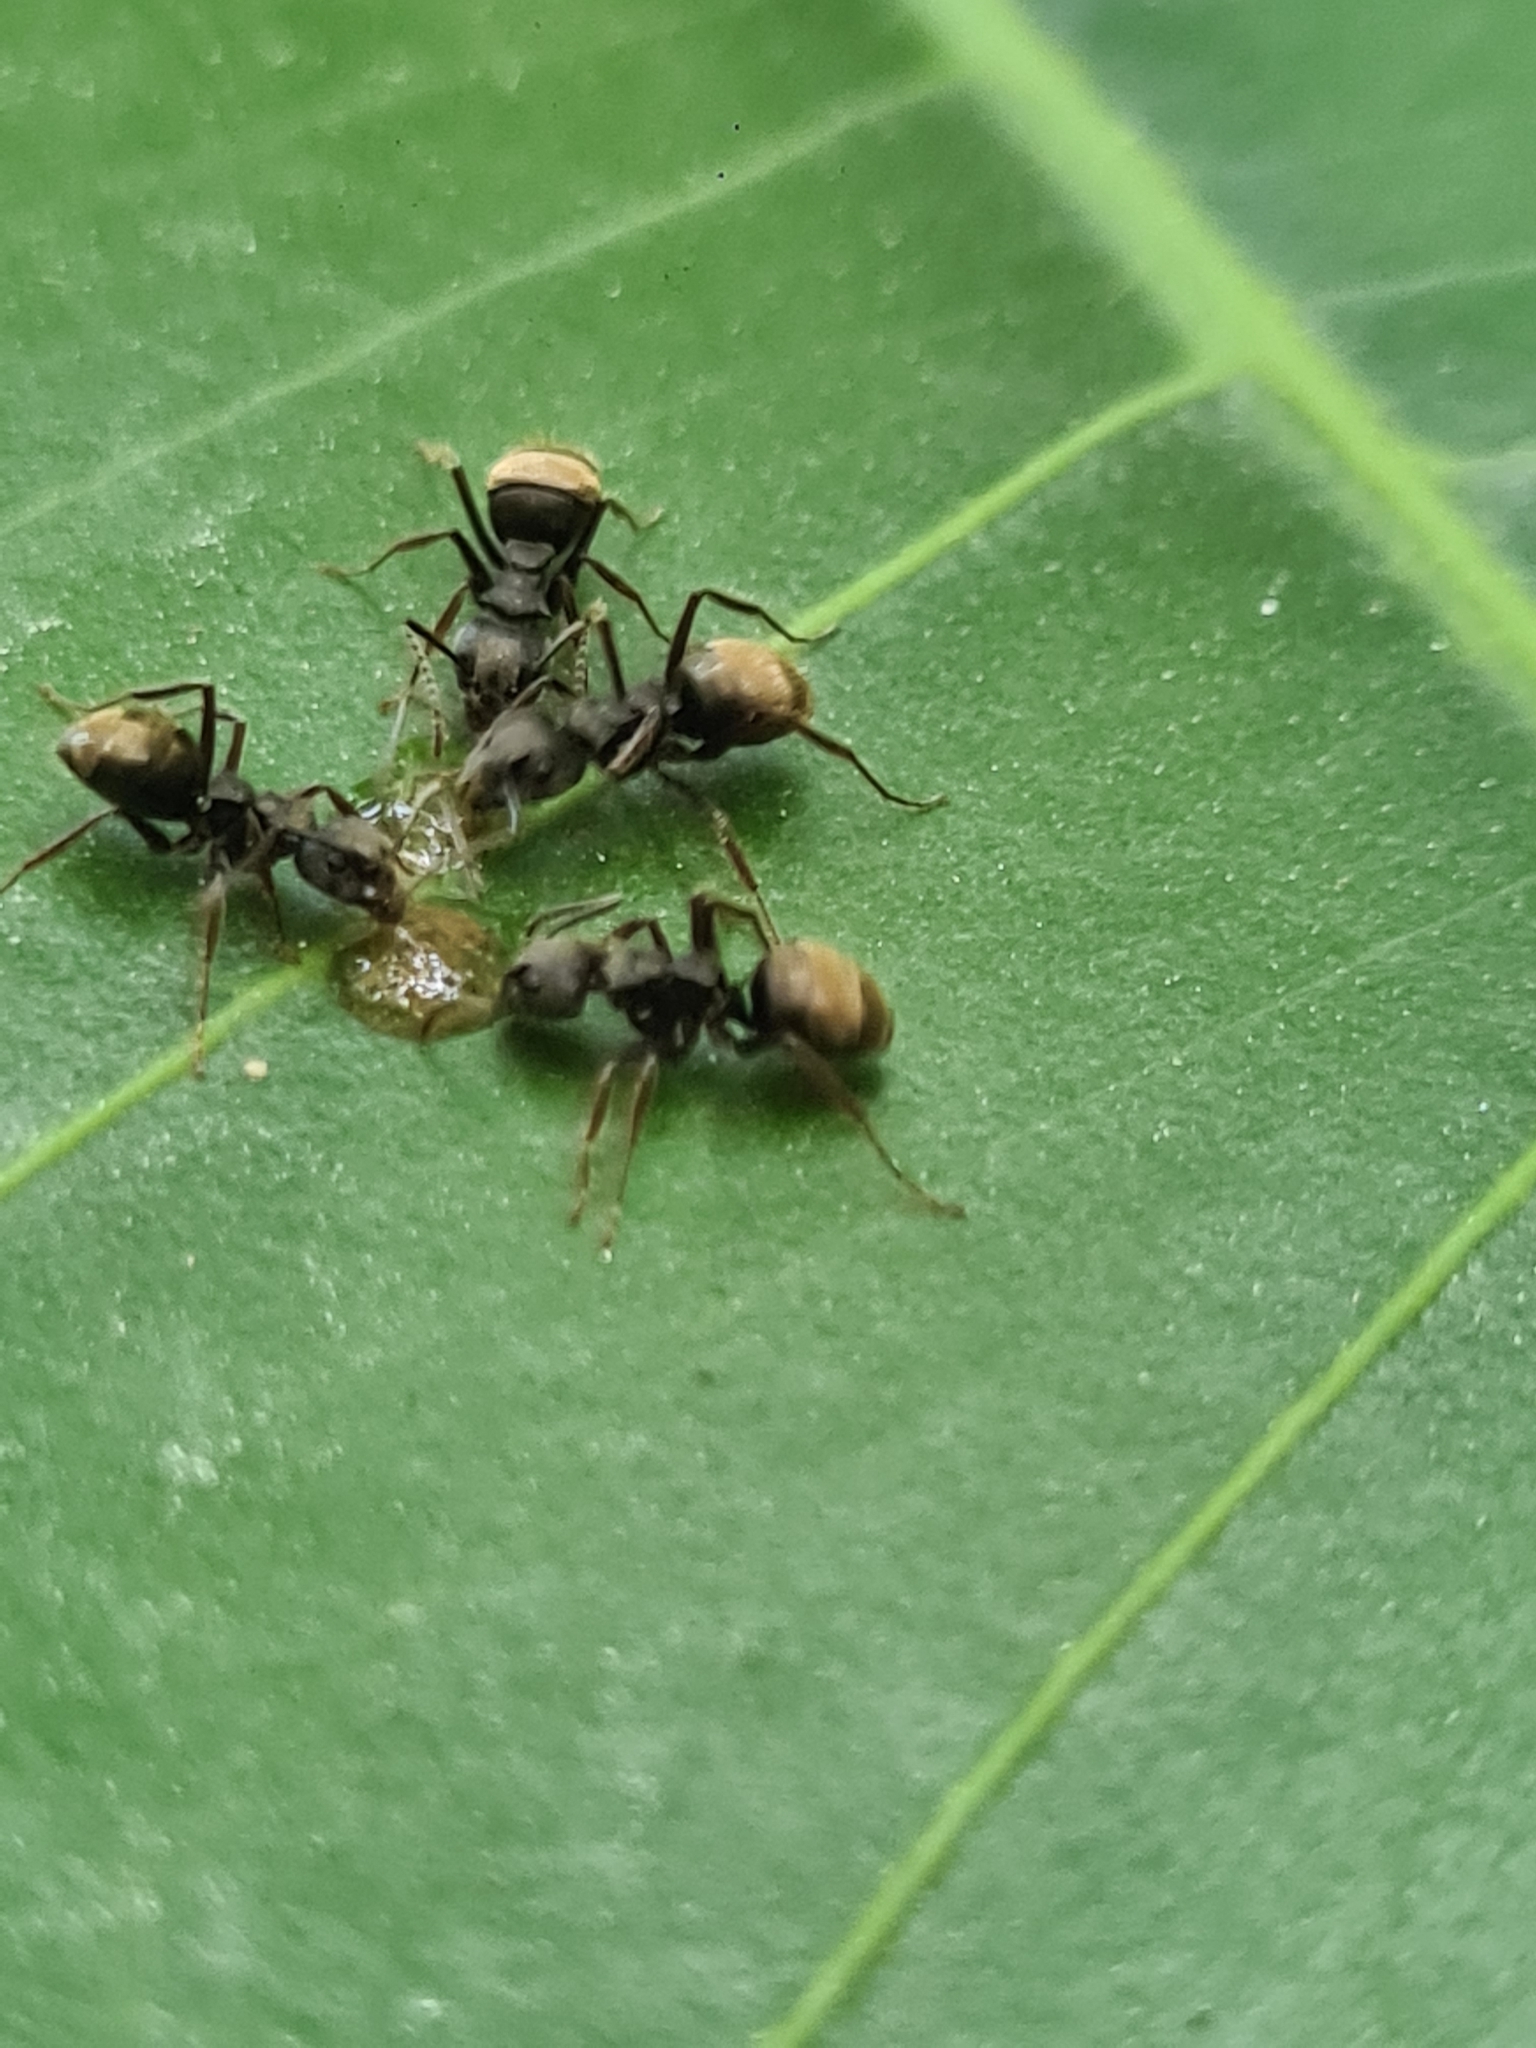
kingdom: Animalia
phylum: Arthropoda
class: Insecta
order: Hymenoptera
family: Formicidae
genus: Dolichoderus
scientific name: Dolichoderus bispinosus
